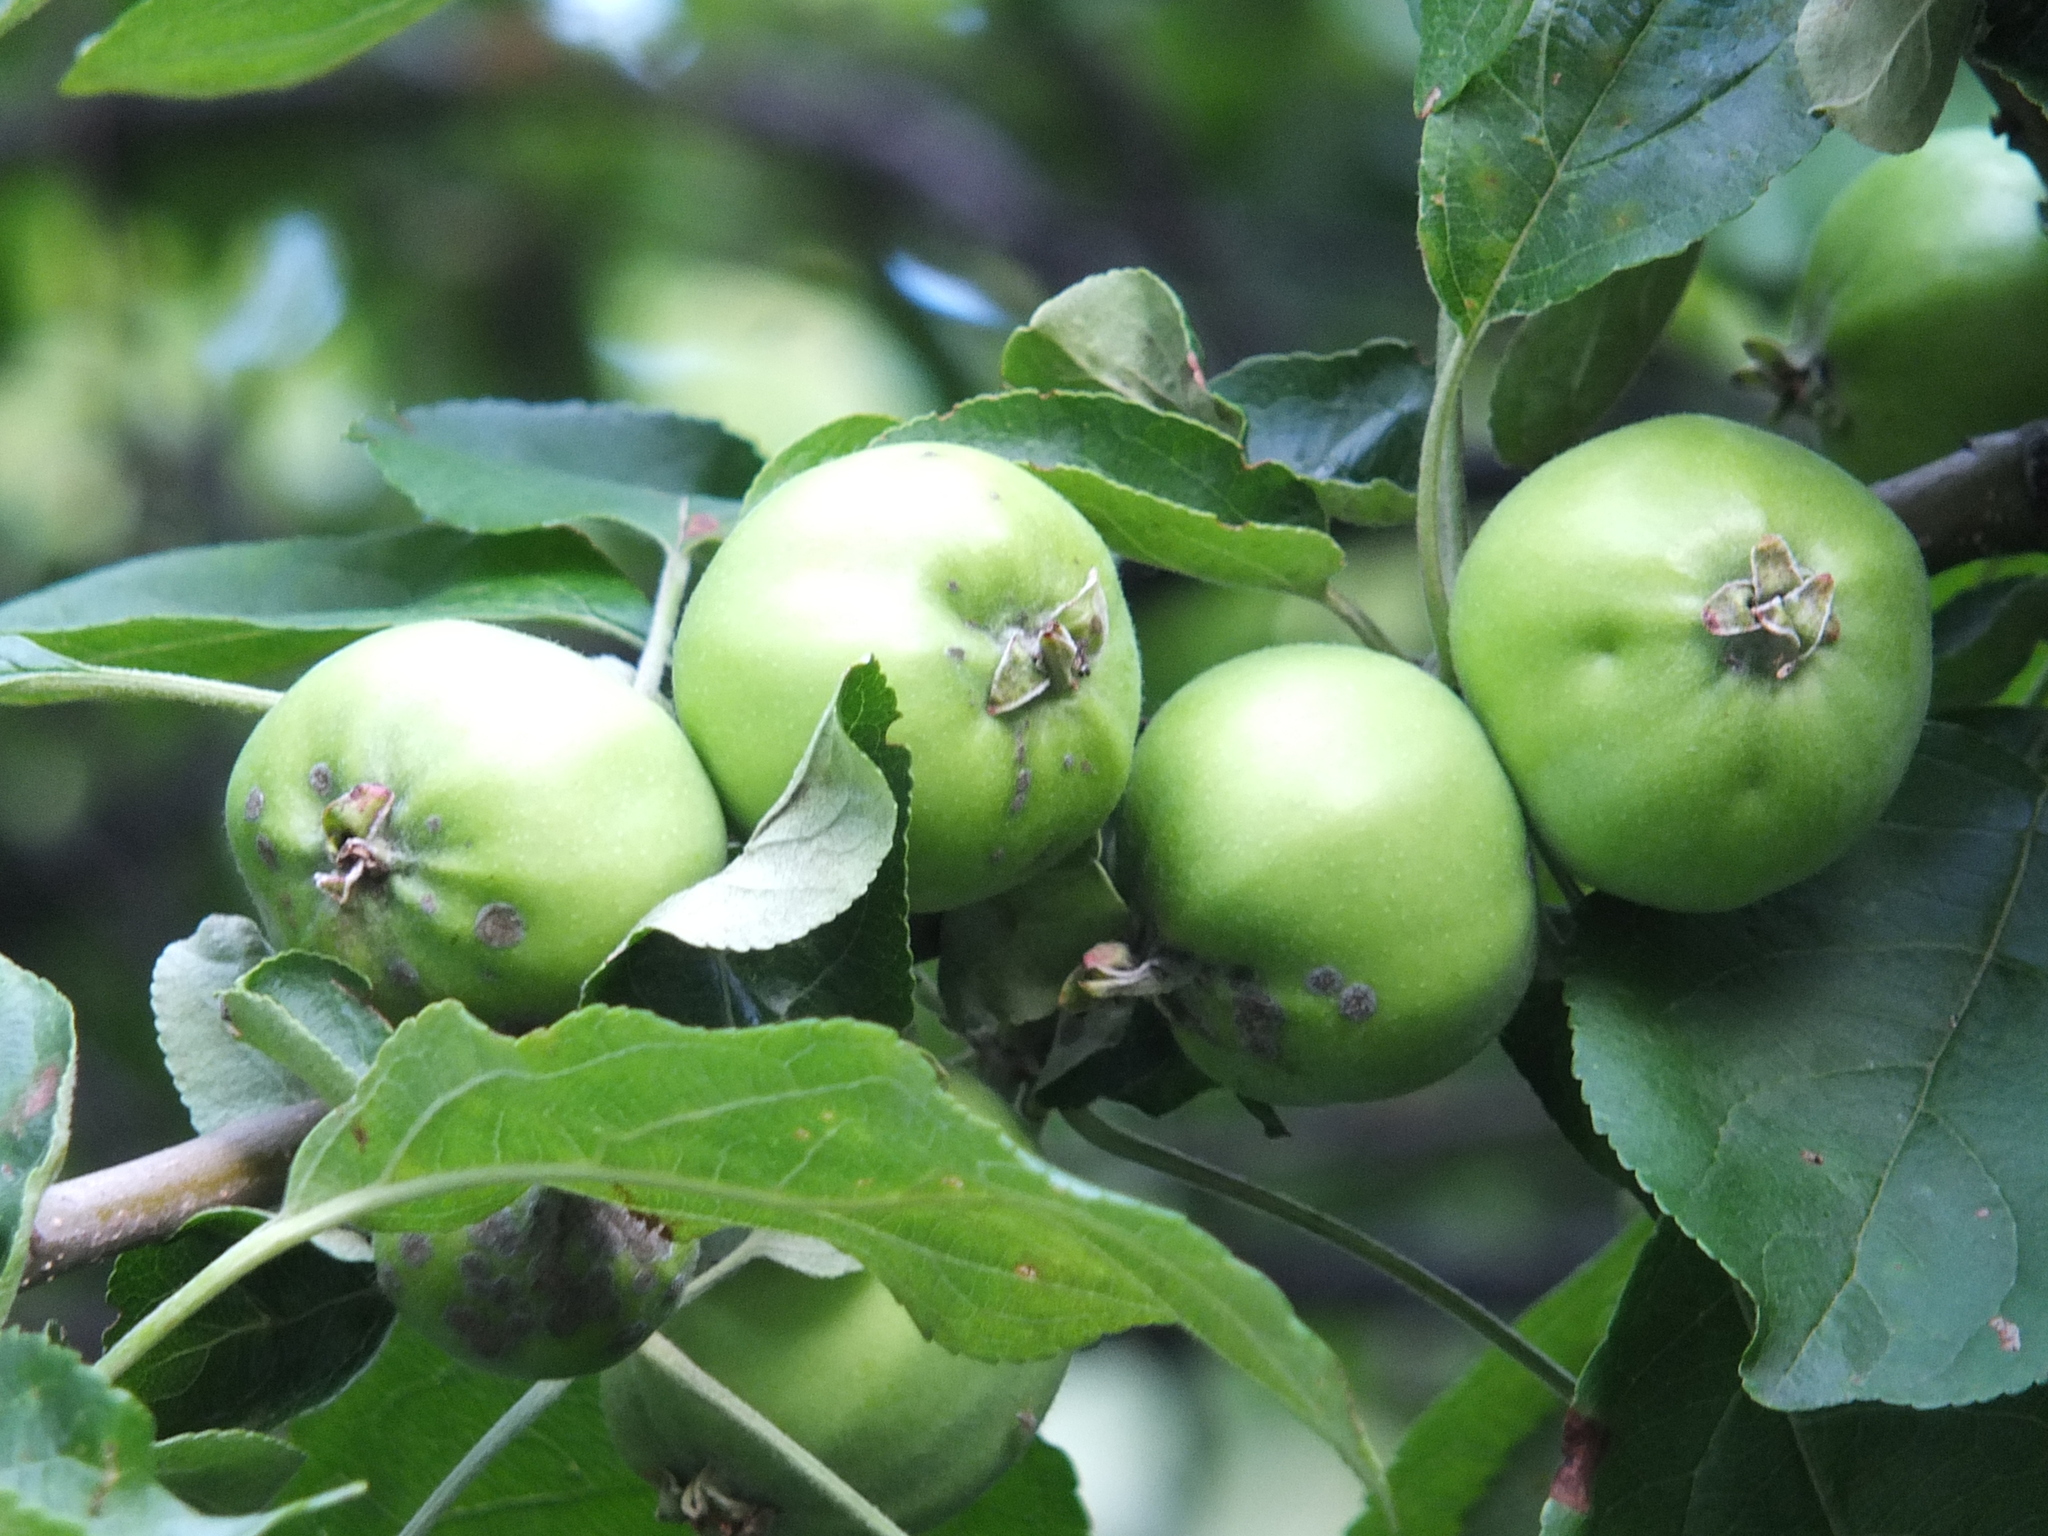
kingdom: Plantae
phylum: Tracheophyta
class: Magnoliopsida
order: Rosales
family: Rosaceae
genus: Malus
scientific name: Malus domestica
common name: Apple
